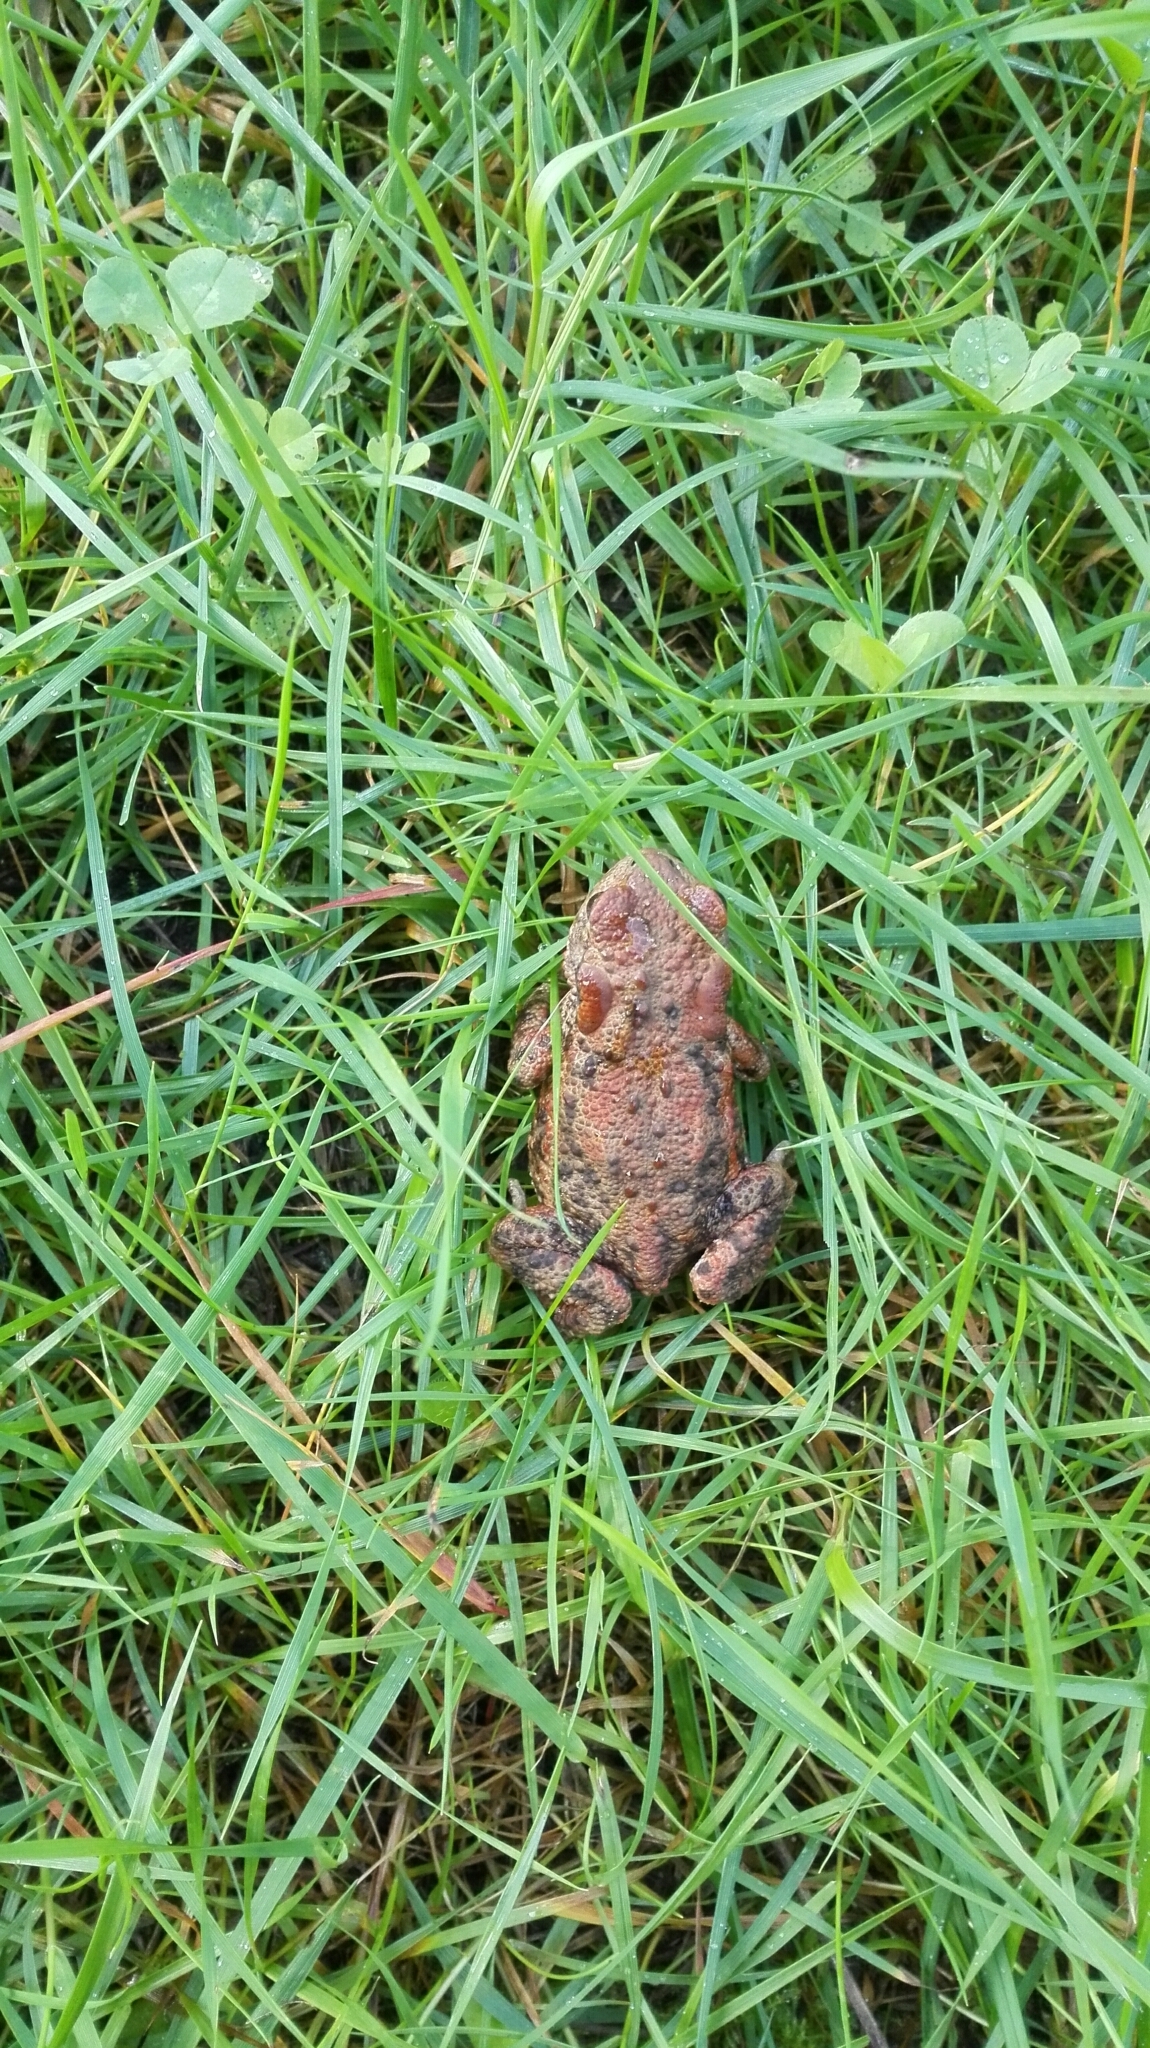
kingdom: Animalia
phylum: Chordata
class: Amphibia
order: Anura
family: Bufonidae
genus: Bufo
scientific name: Bufo bufo
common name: Common toad
